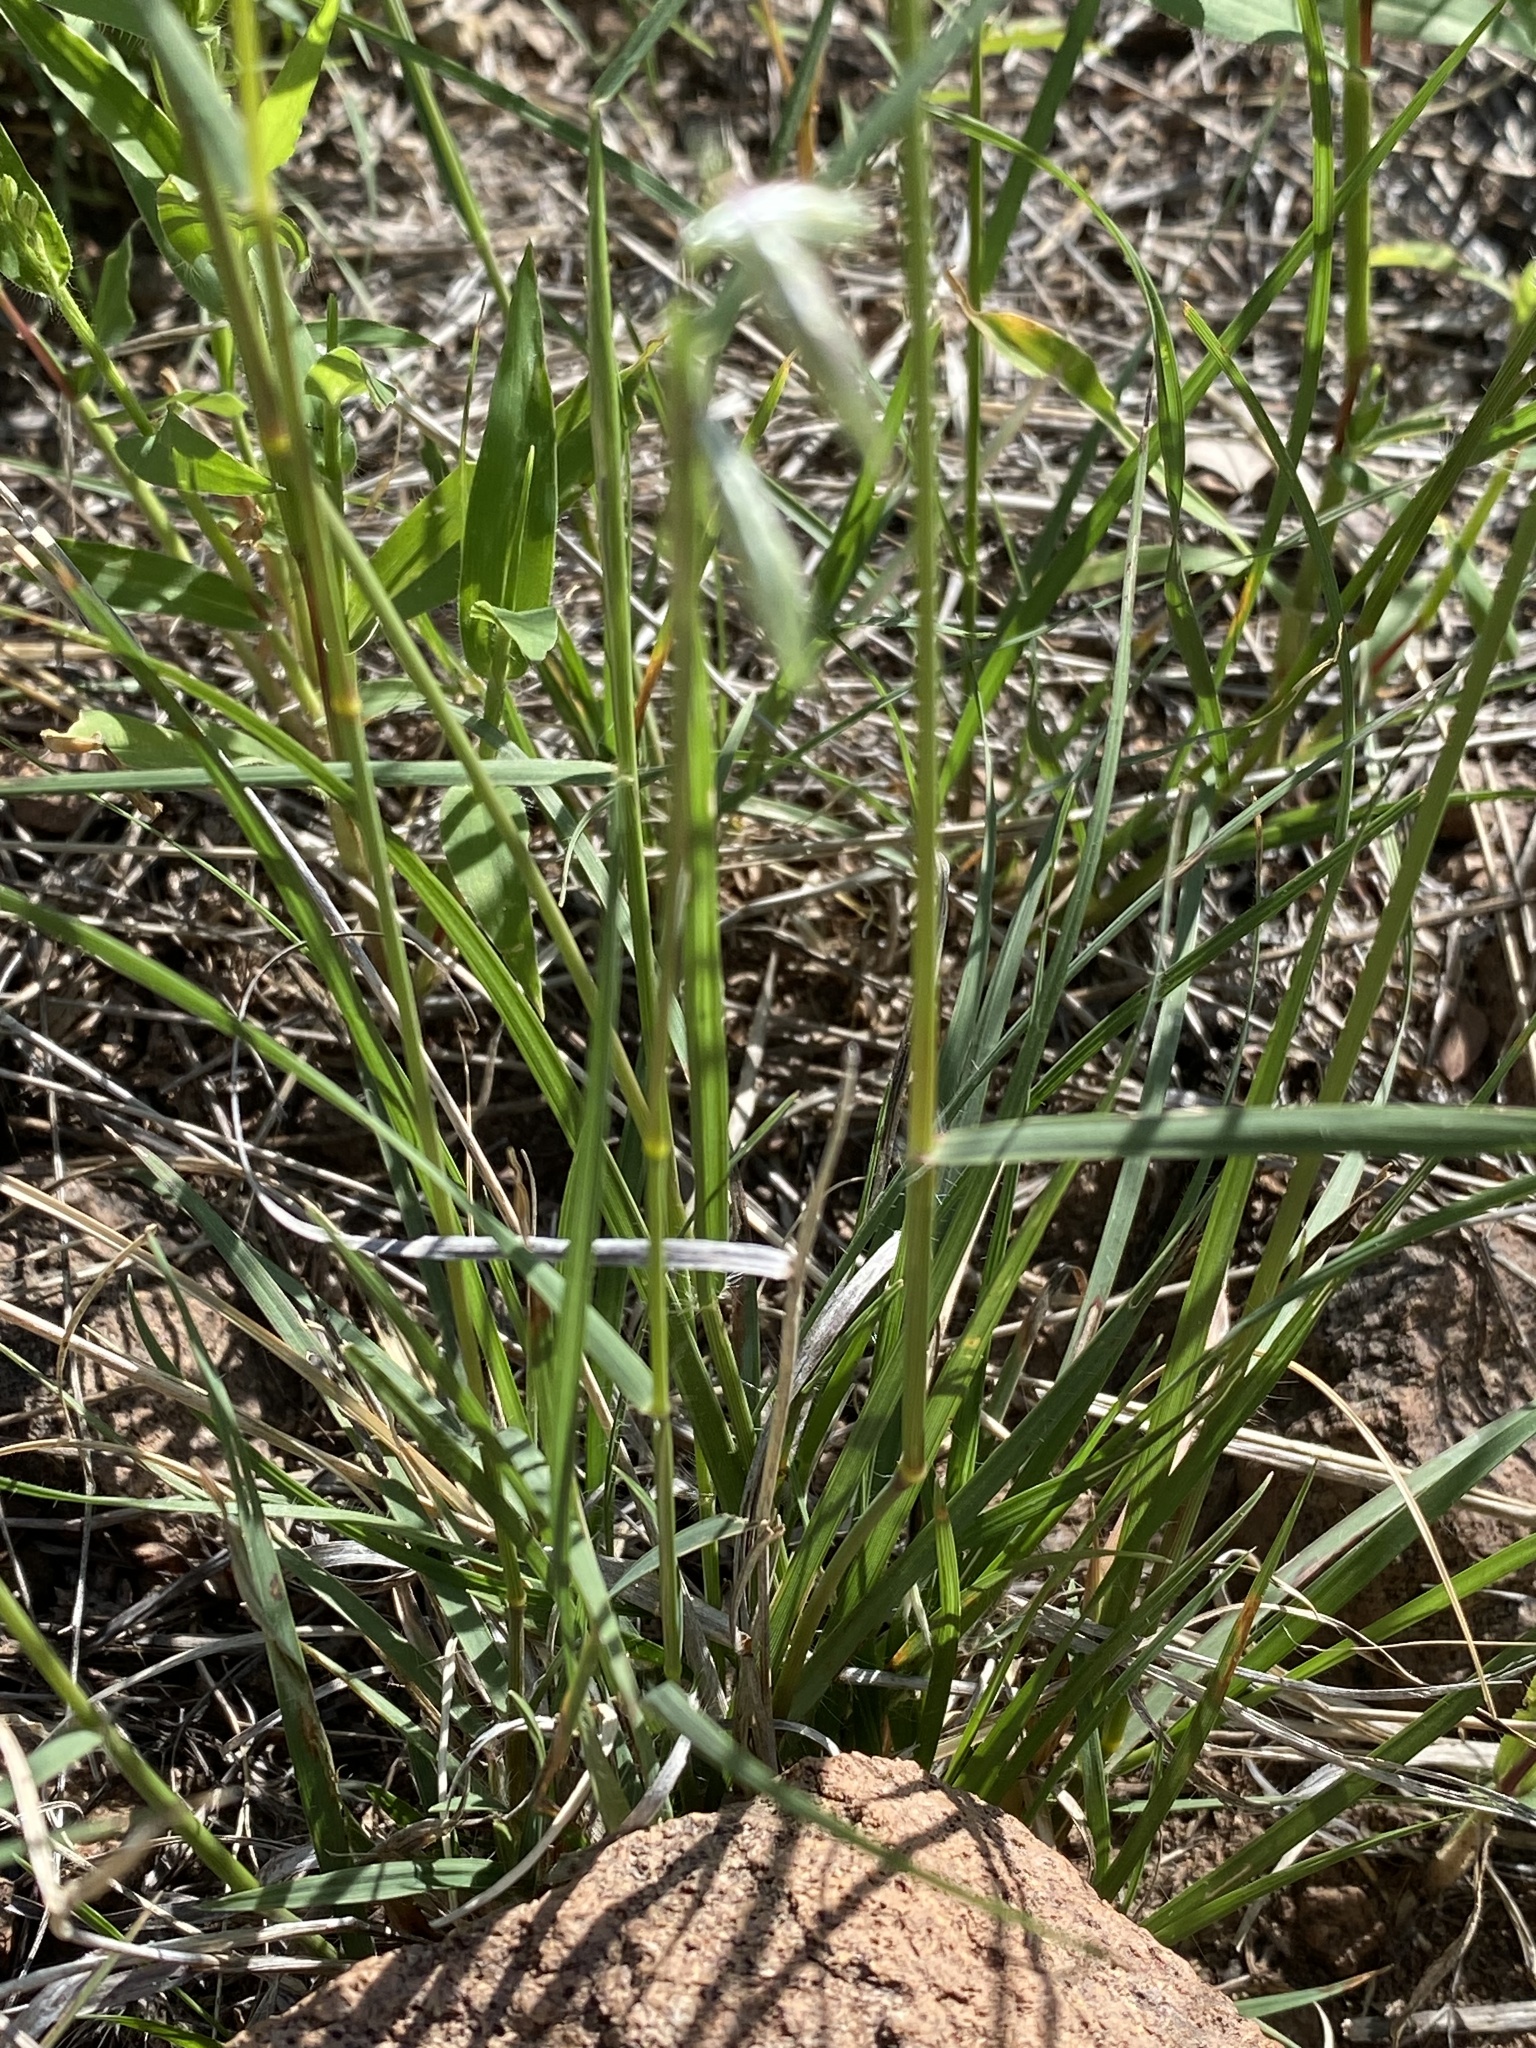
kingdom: Plantae
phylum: Tracheophyta
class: Liliopsida
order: Poales
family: Poaceae
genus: Bouteloua
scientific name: Bouteloua chondrosioides
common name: Sprucetop grama
